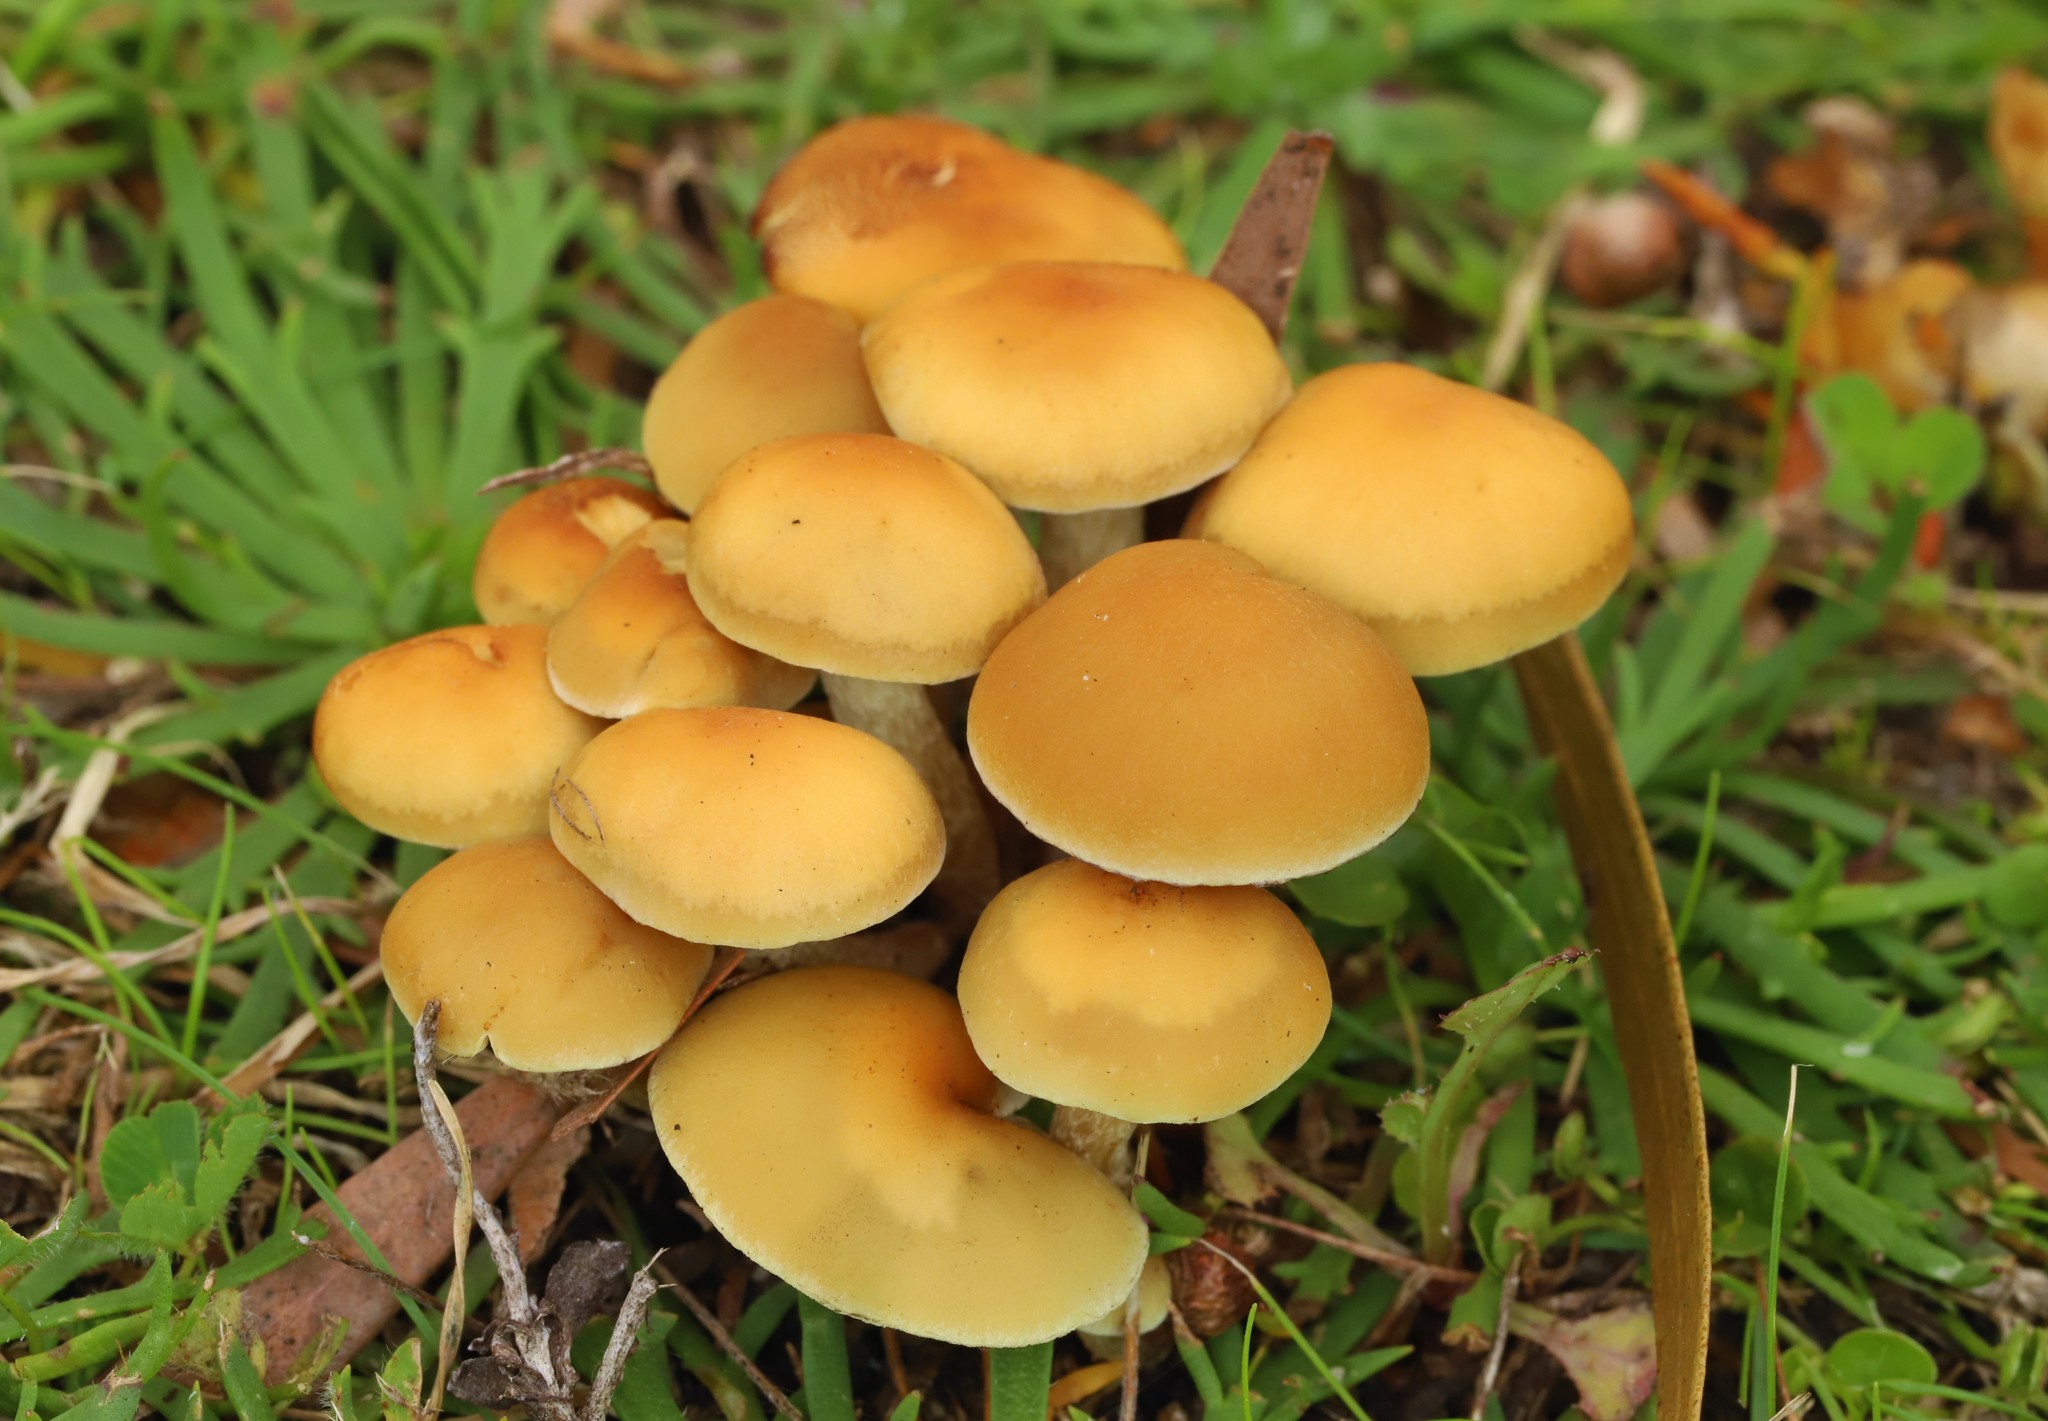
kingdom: Fungi
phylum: Basidiomycota
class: Agaricomycetes
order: Agaricales
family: Strophariaceae
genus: Hypholoma
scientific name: Hypholoma fasciculare
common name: Sulphur tuft
